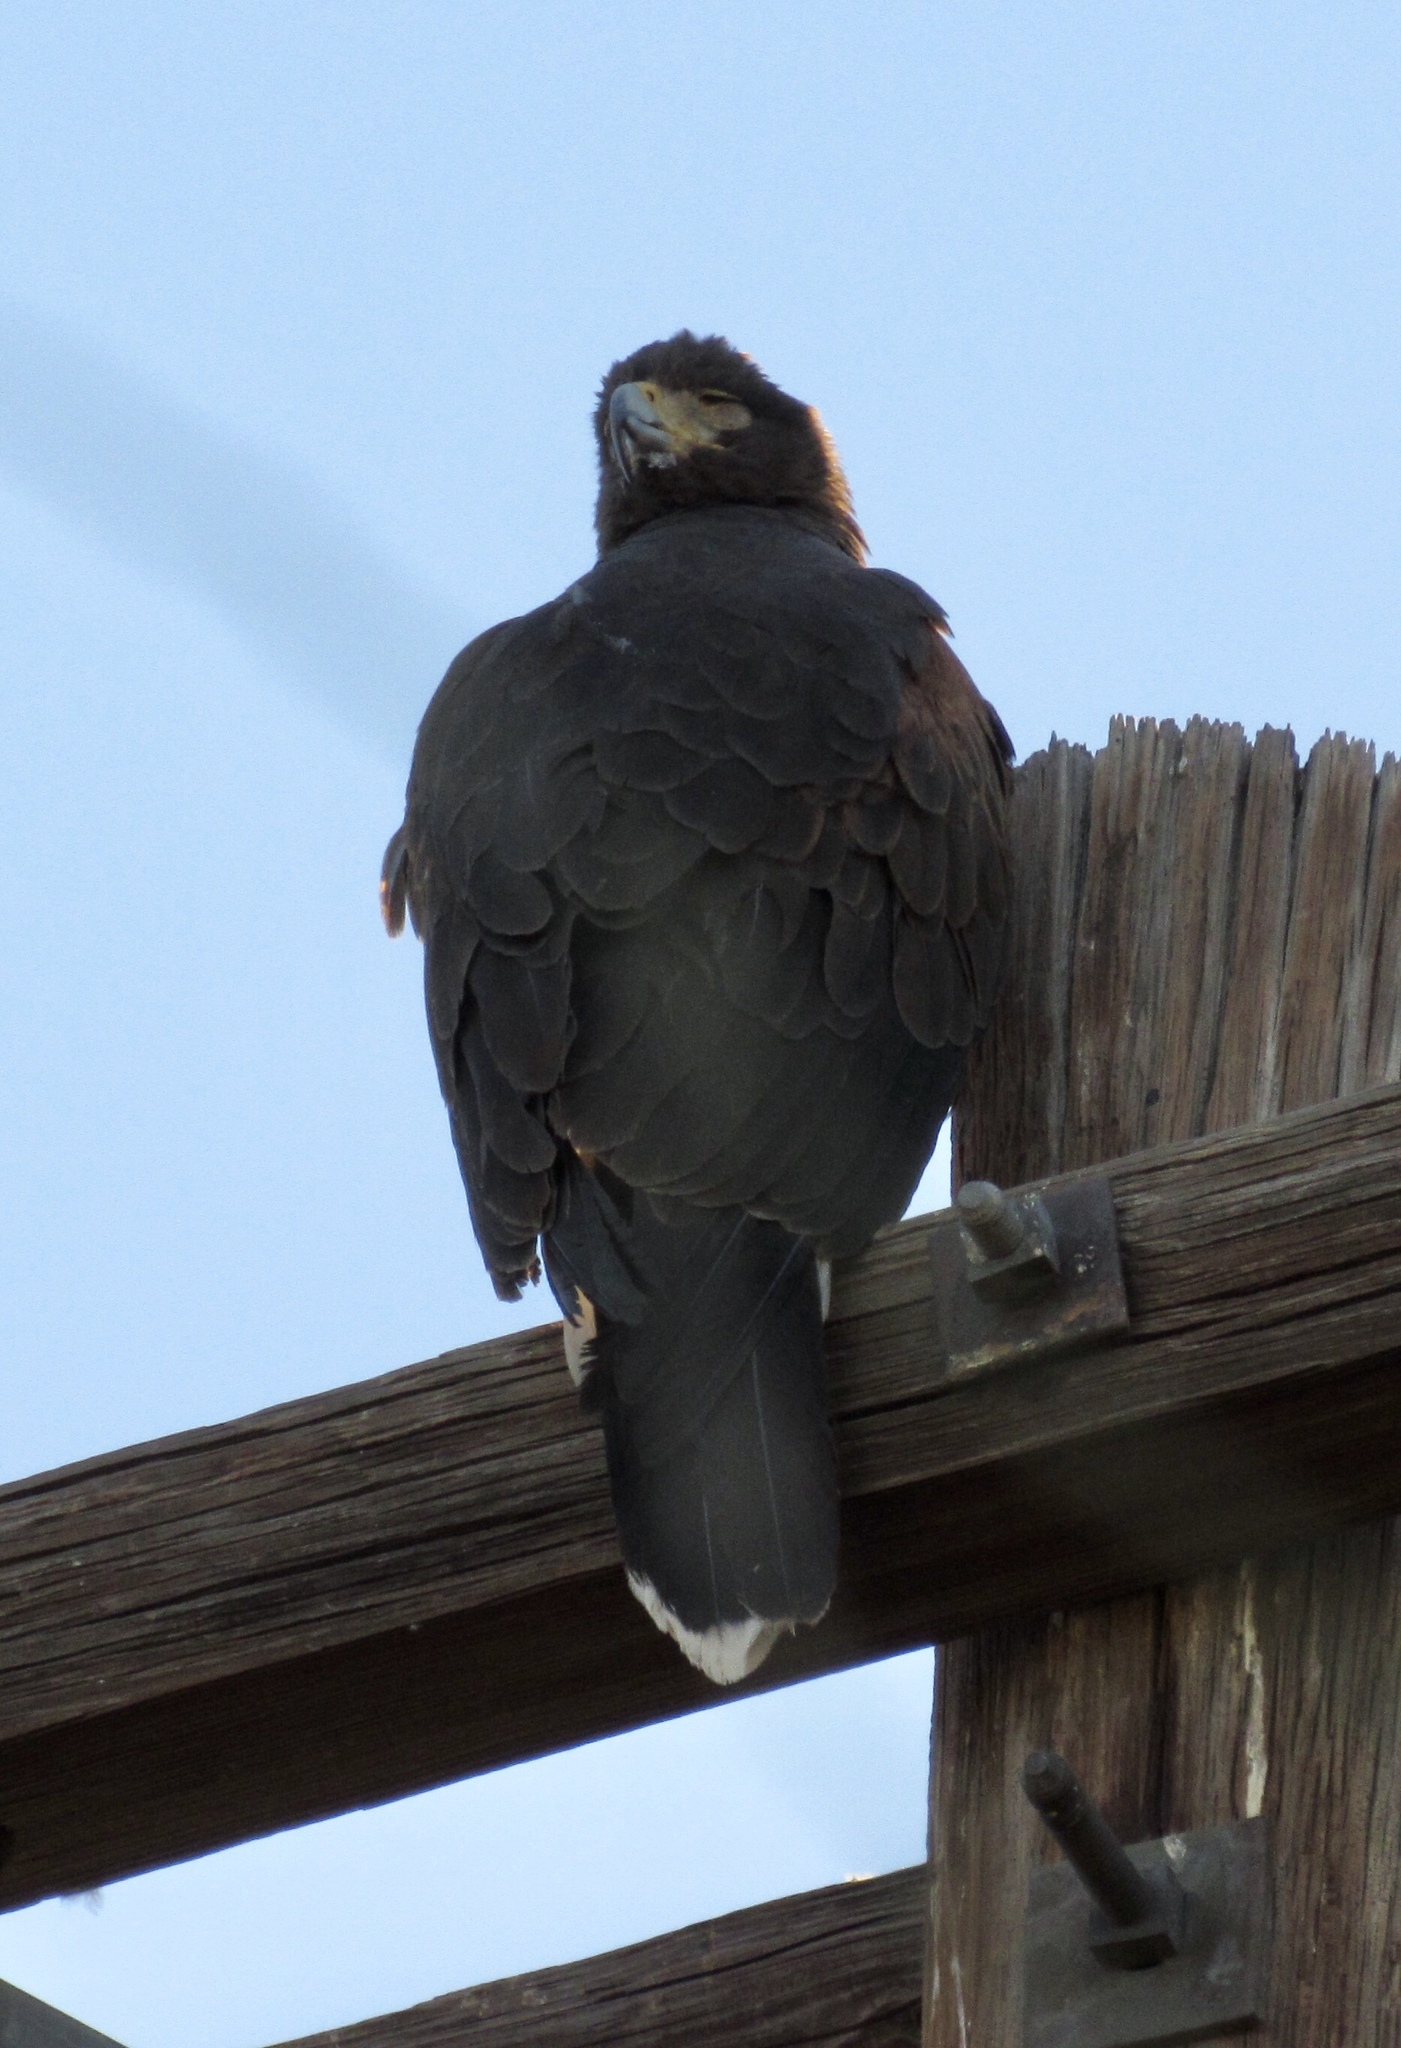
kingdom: Animalia
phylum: Chordata
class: Aves
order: Accipitriformes
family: Accipitridae
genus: Parabuteo
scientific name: Parabuteo unicinctus
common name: Harris's hawk
